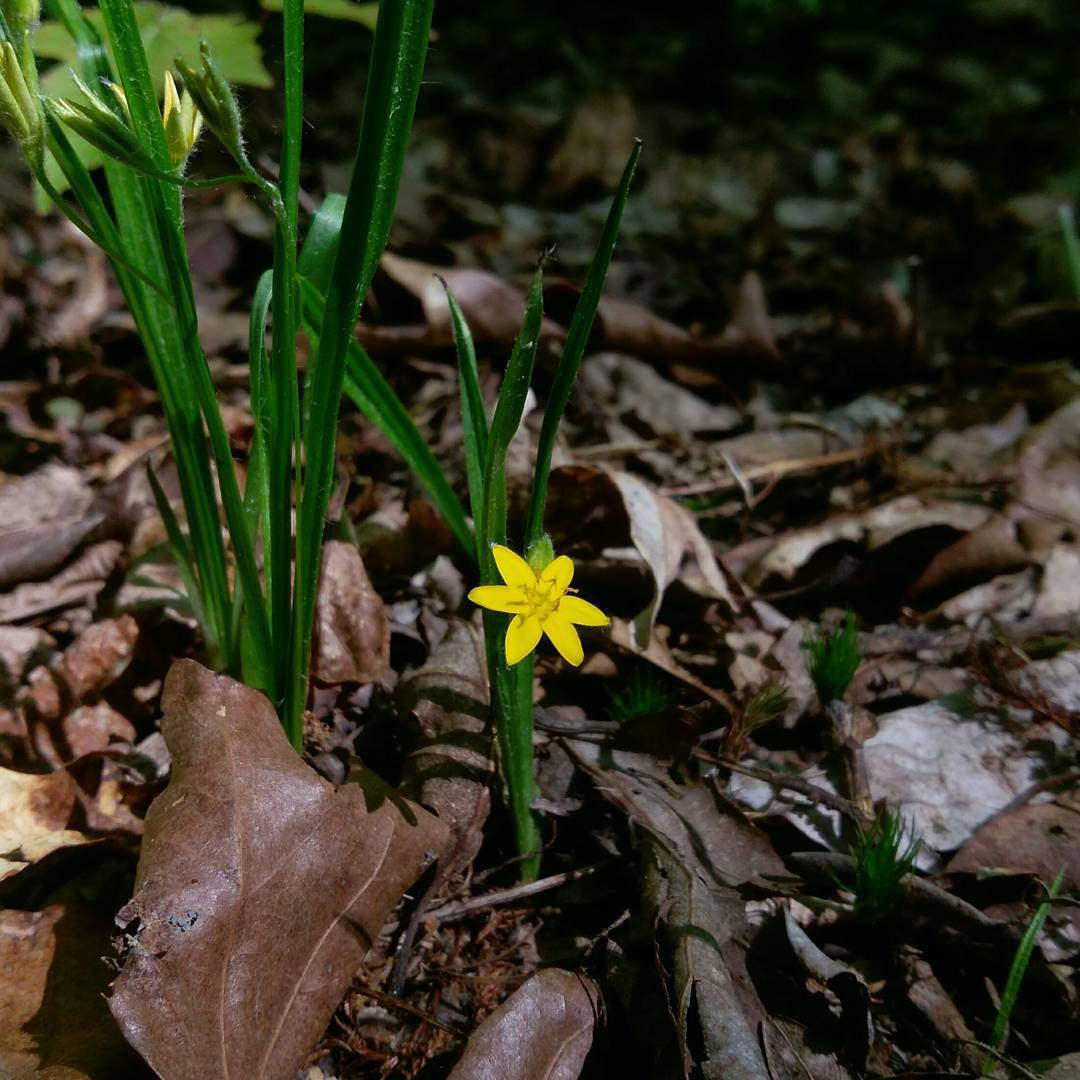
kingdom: Plantae
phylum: Tracheophyta
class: Liliopsida
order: Asparagales
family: Hypoxidaceae
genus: Hypoxis
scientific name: Hypoxis hirsuta
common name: Common goldstar
